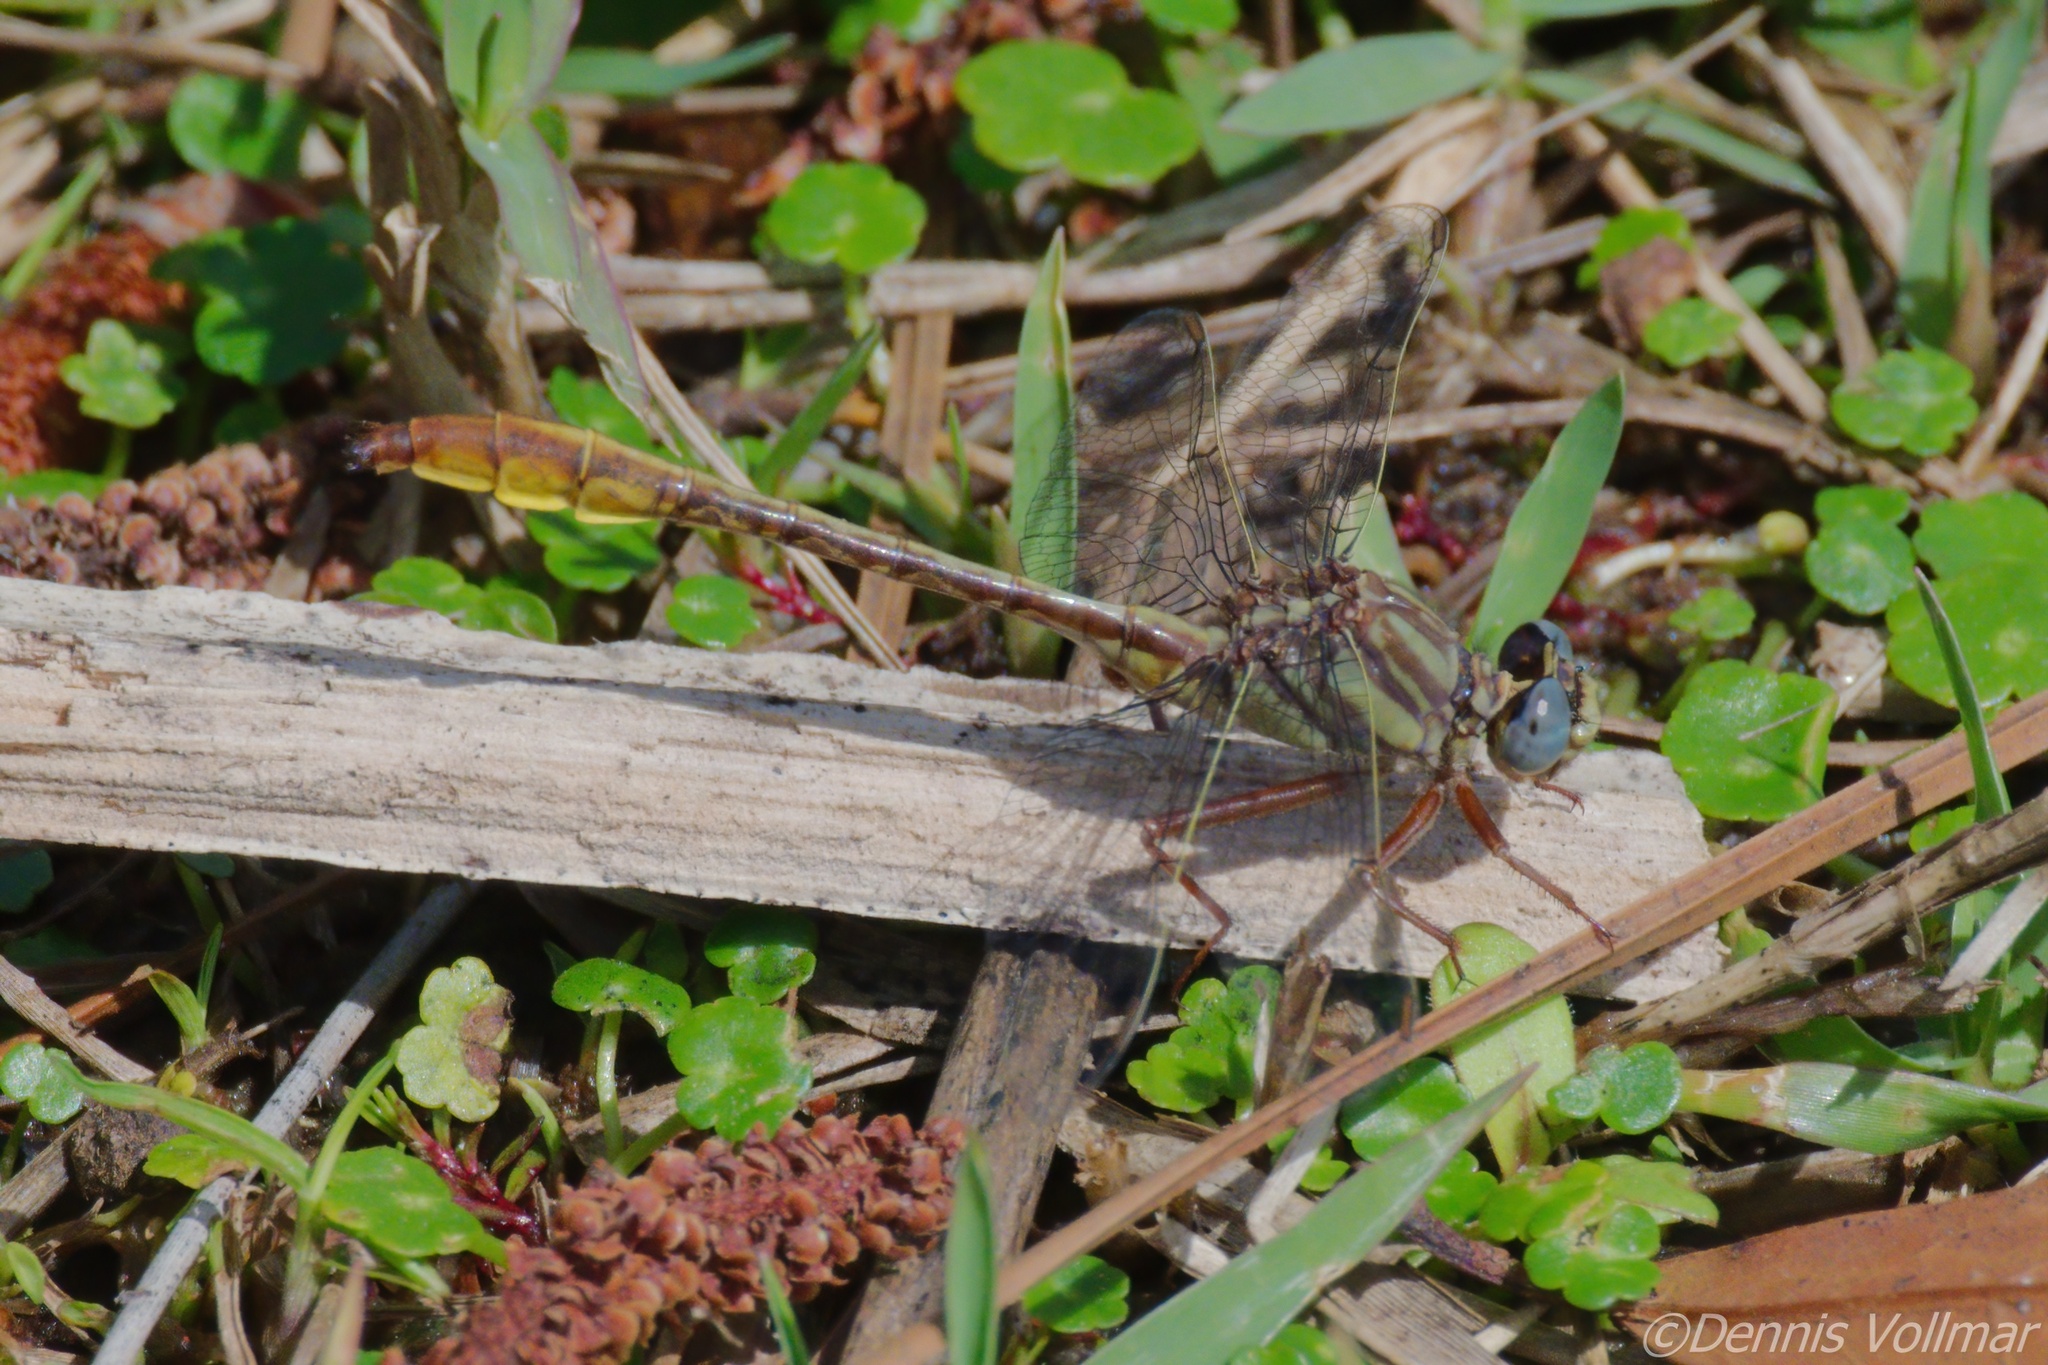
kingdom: Animalia
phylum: Arthropoda
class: Insecta
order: Odonata
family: Gomphidae
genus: Phanogomphus
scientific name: Phanogomphus cavillaris
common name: Sandhill clubtail
